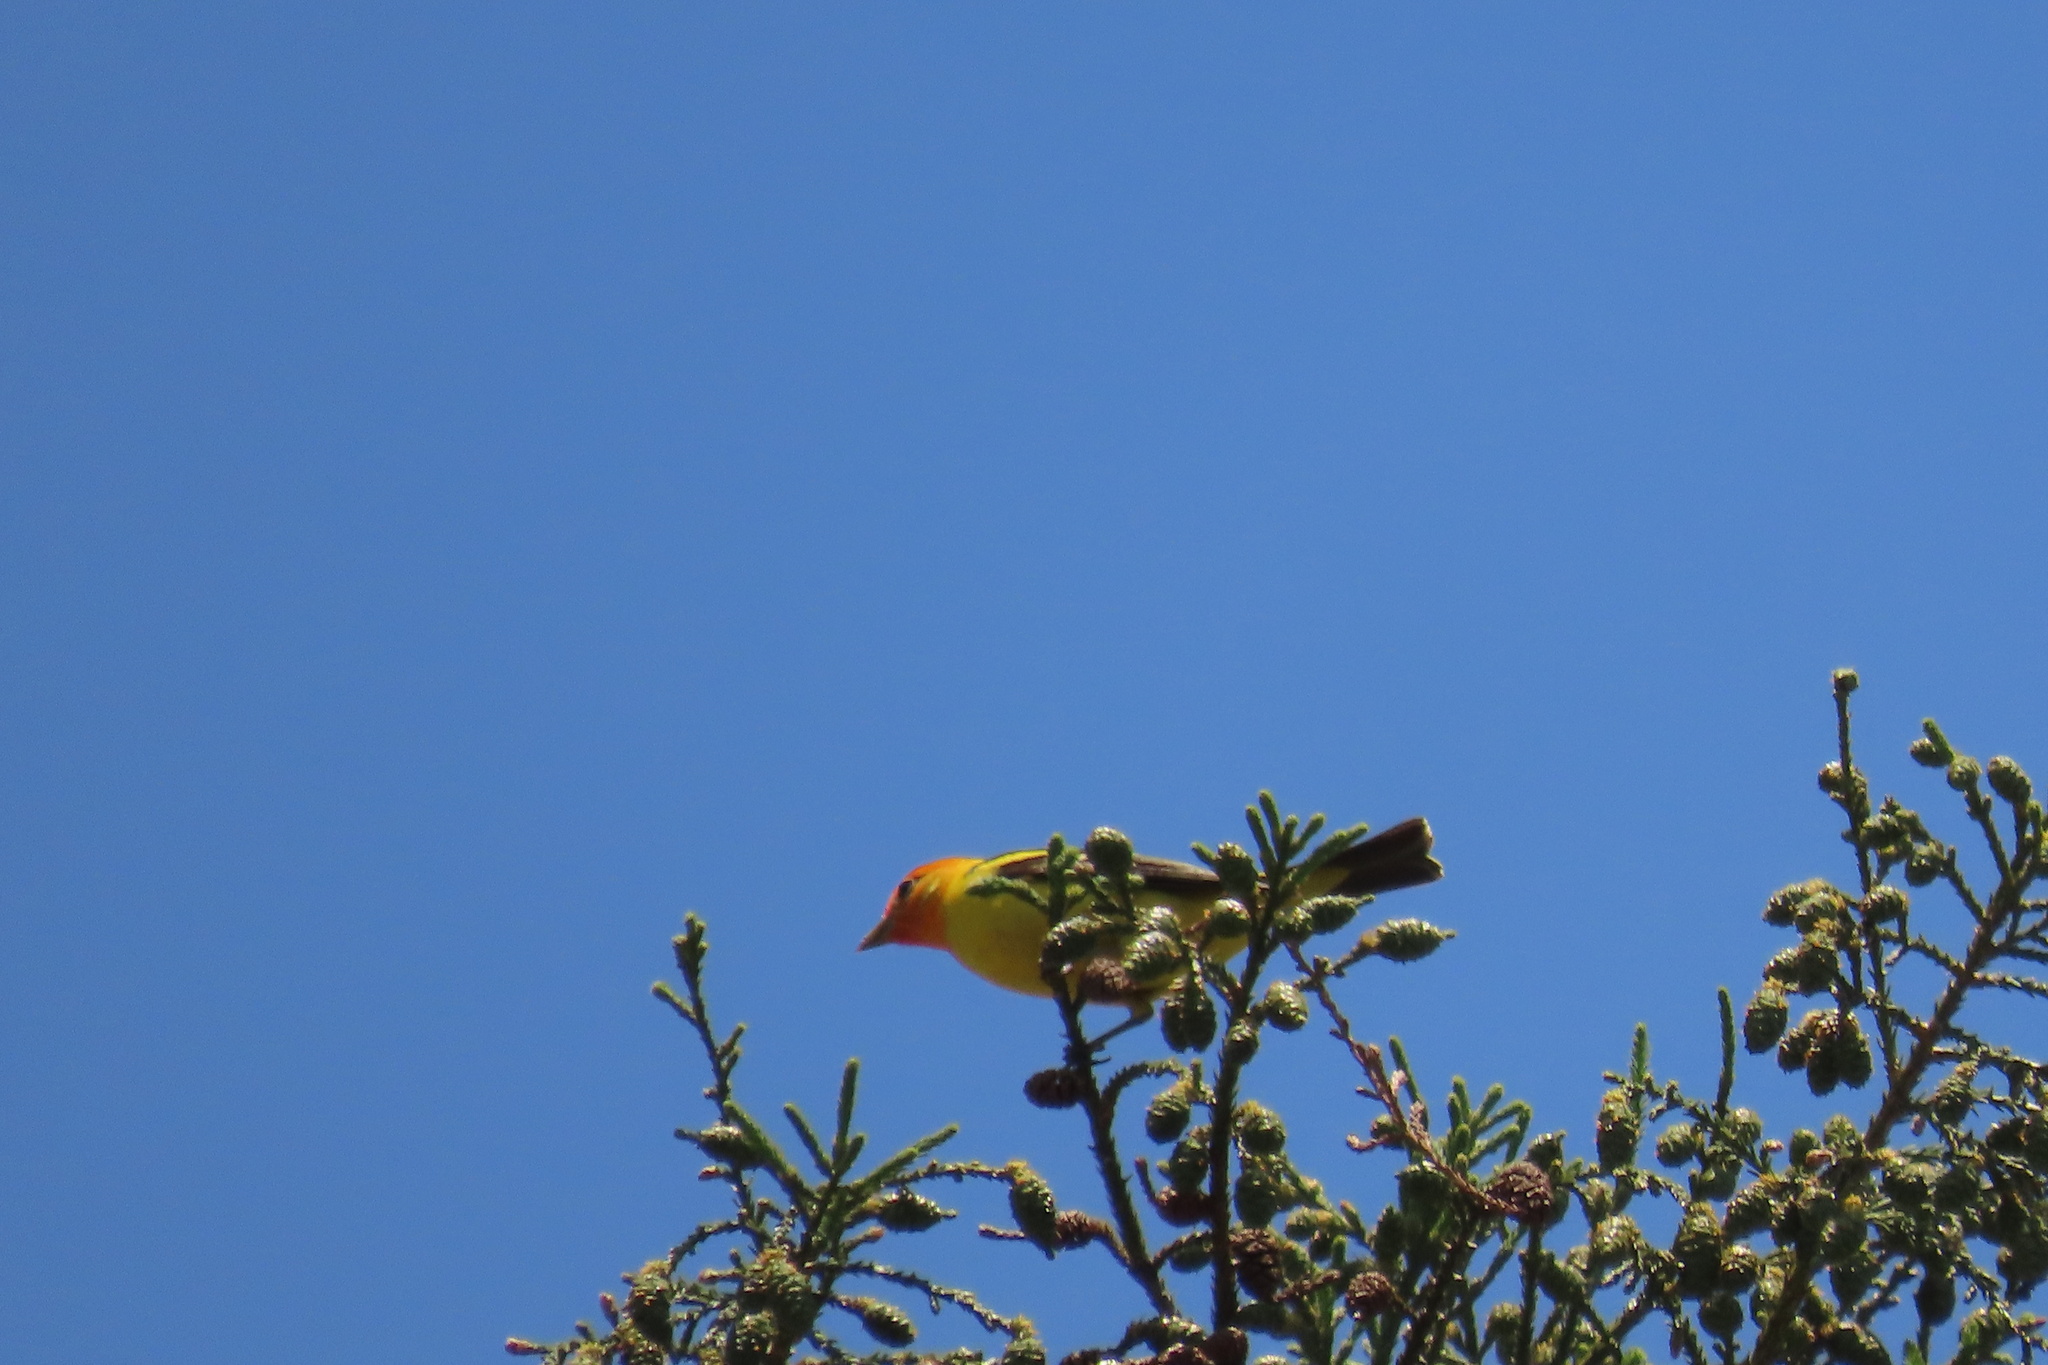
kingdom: Animalia
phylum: Chordata
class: Aves
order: Passeriformes
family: Cardinalidae
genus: Piranga
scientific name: Piranga ludoviciana
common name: Western tanager
